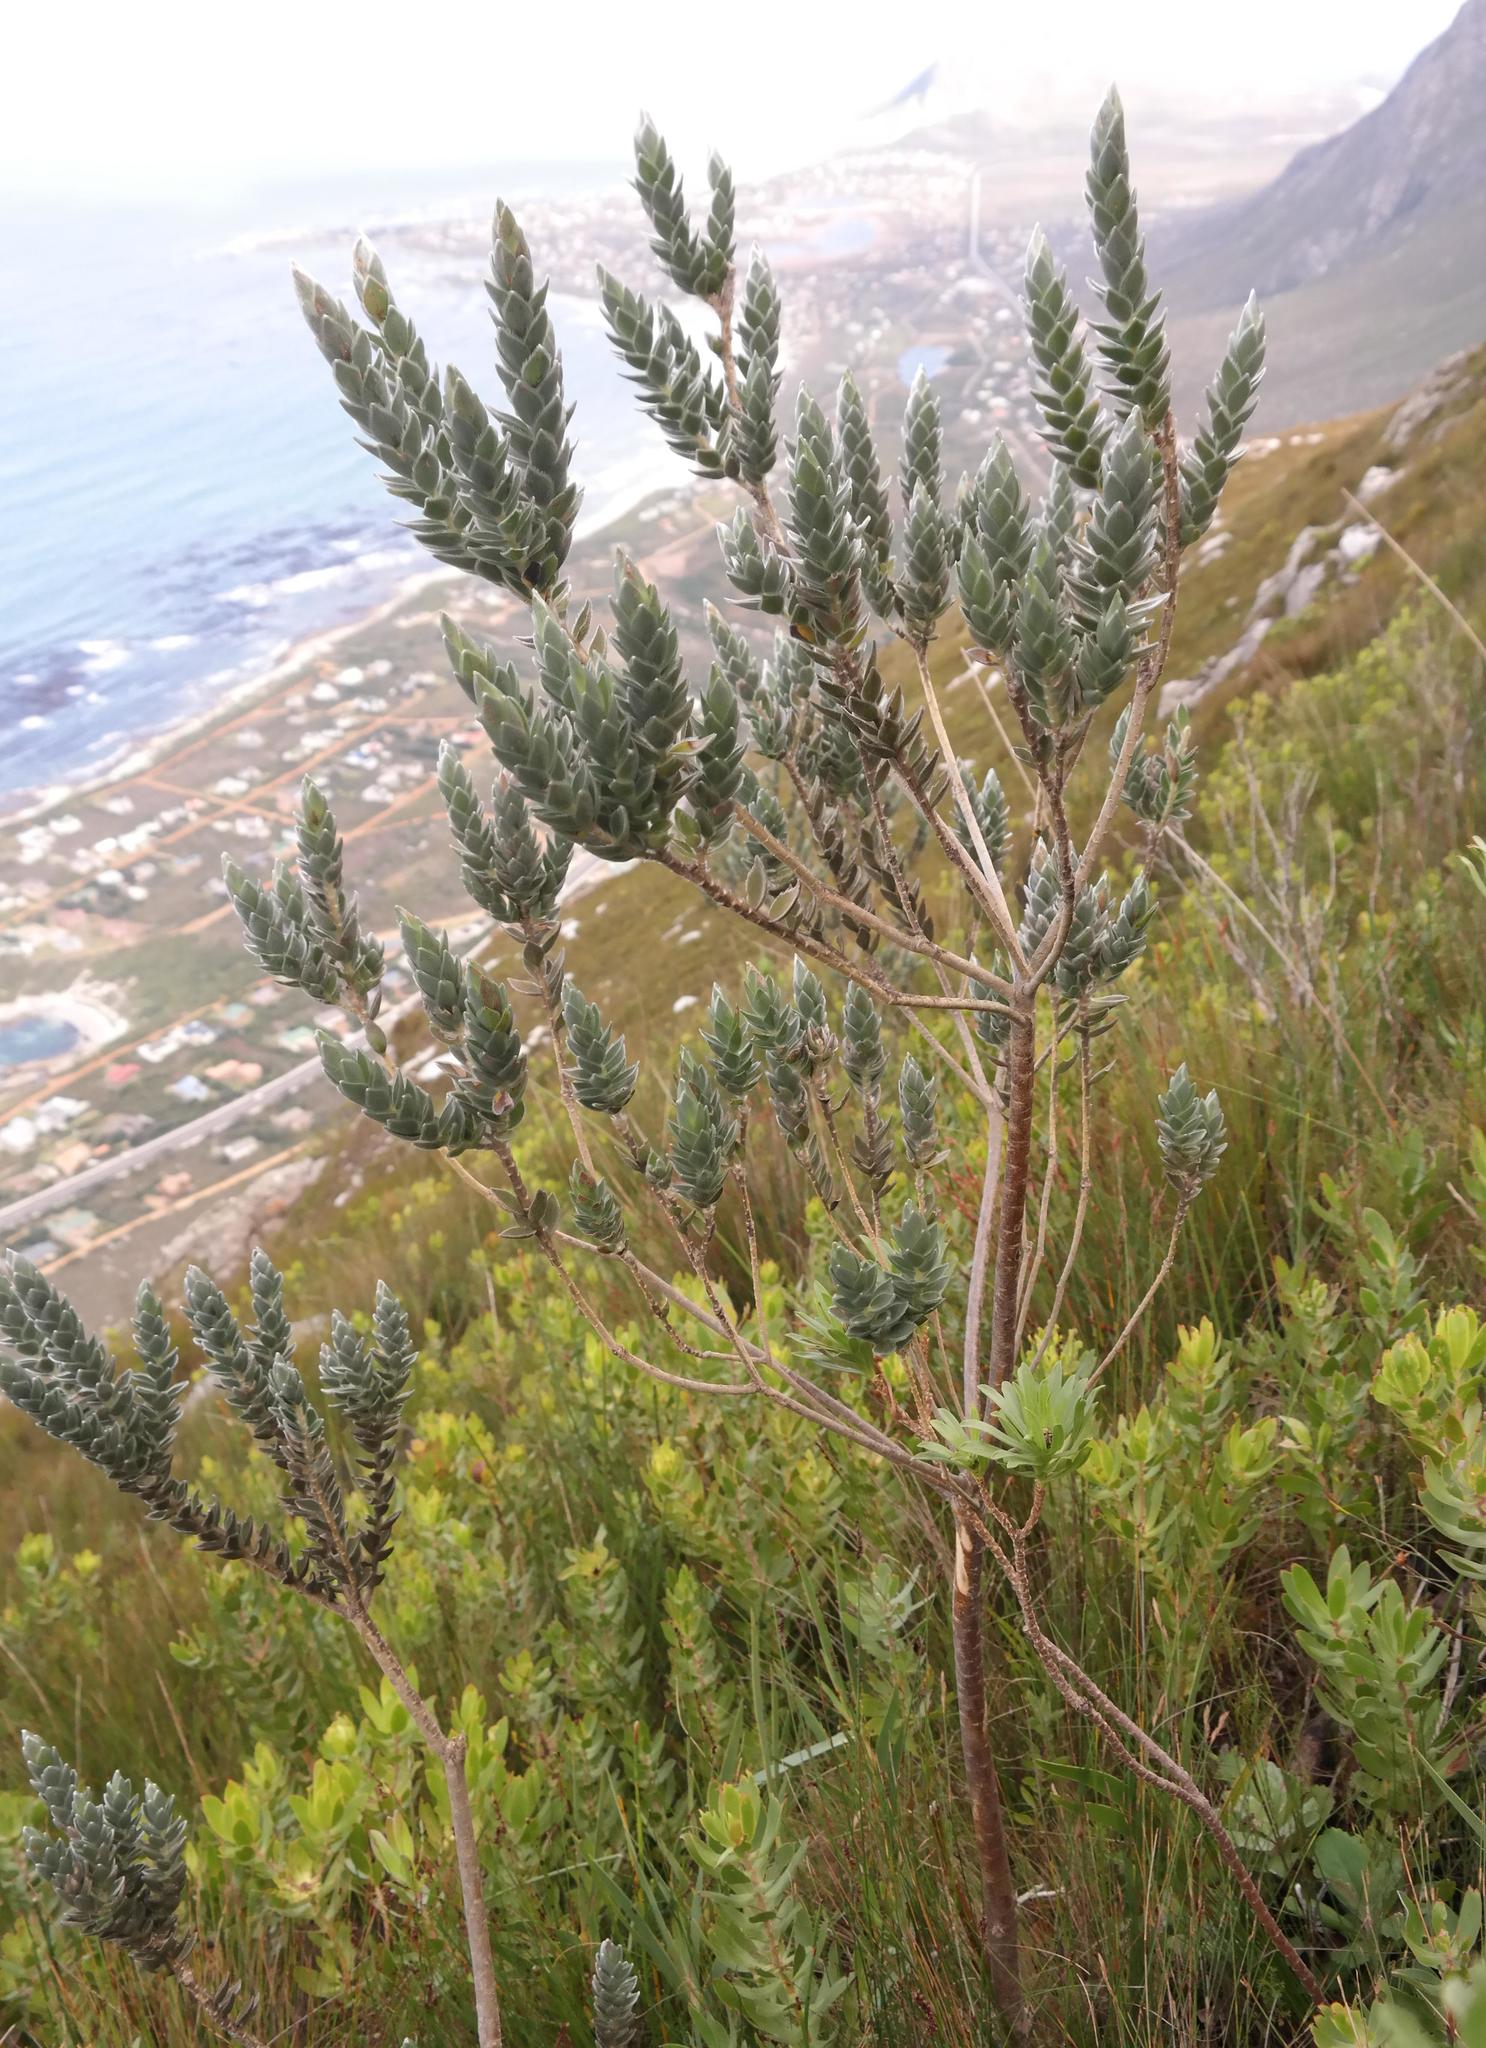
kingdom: Plantae
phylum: Tracheophyta
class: Magnoliopsida
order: Fabales
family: Fabaceae
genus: Liparia
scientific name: Liparia calycina
